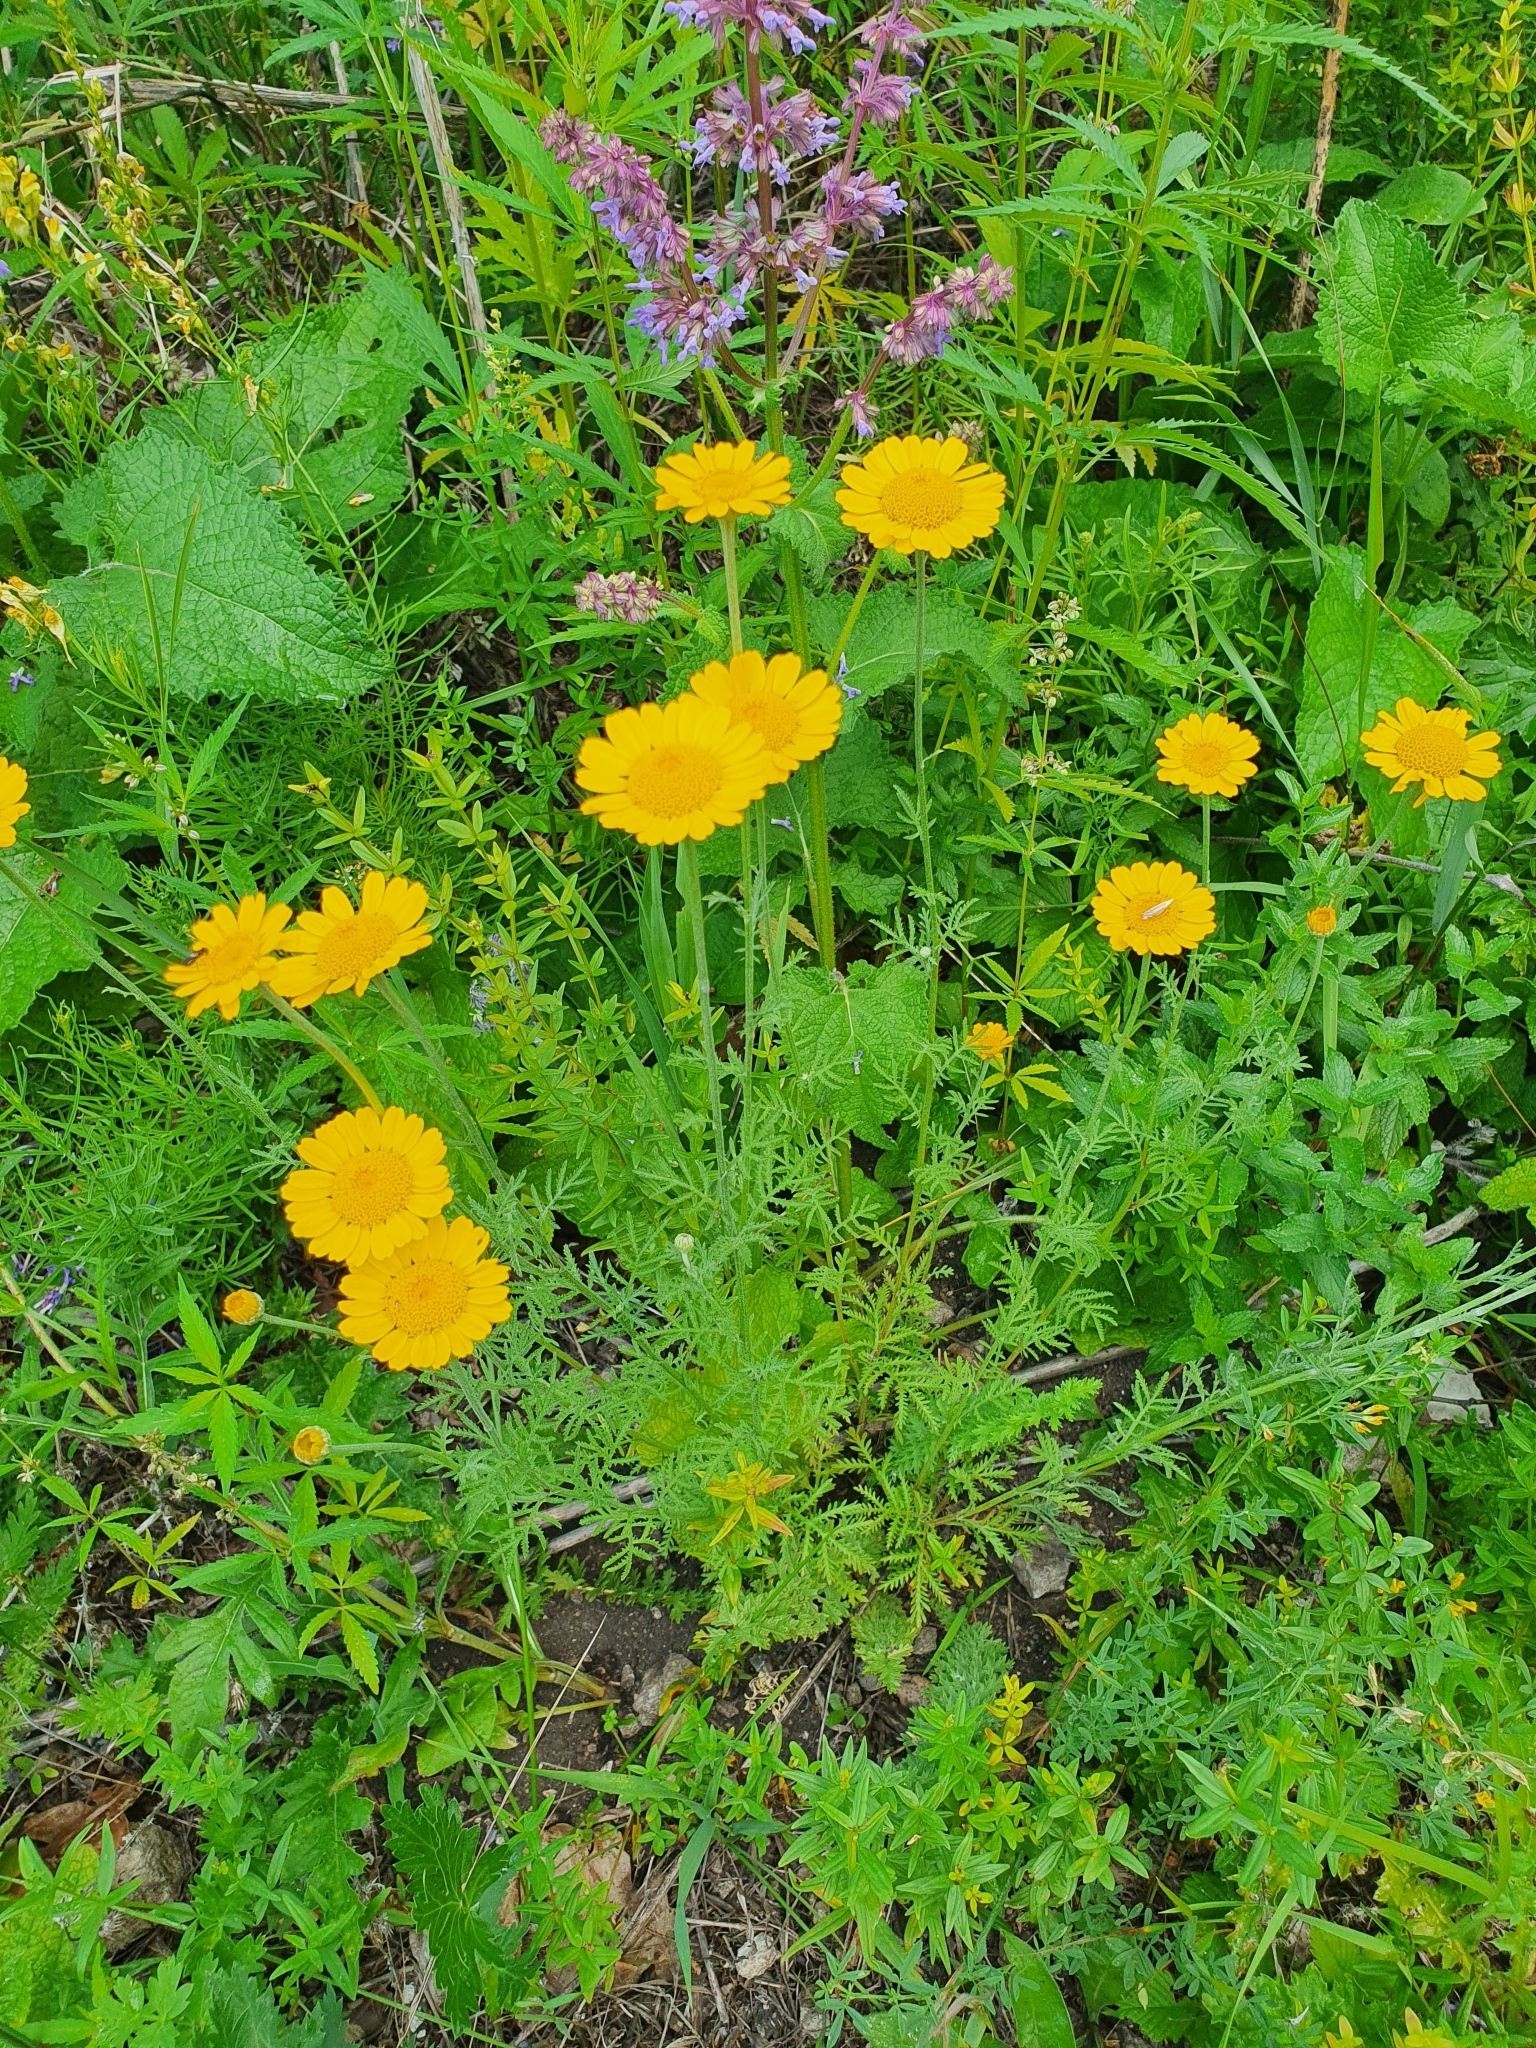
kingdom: Plantae
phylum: Tracheophyta
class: Magnoliopsida
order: Asterales
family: Asteraceae
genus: Cota
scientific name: Cota tinctoria
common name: Golden chamomile
